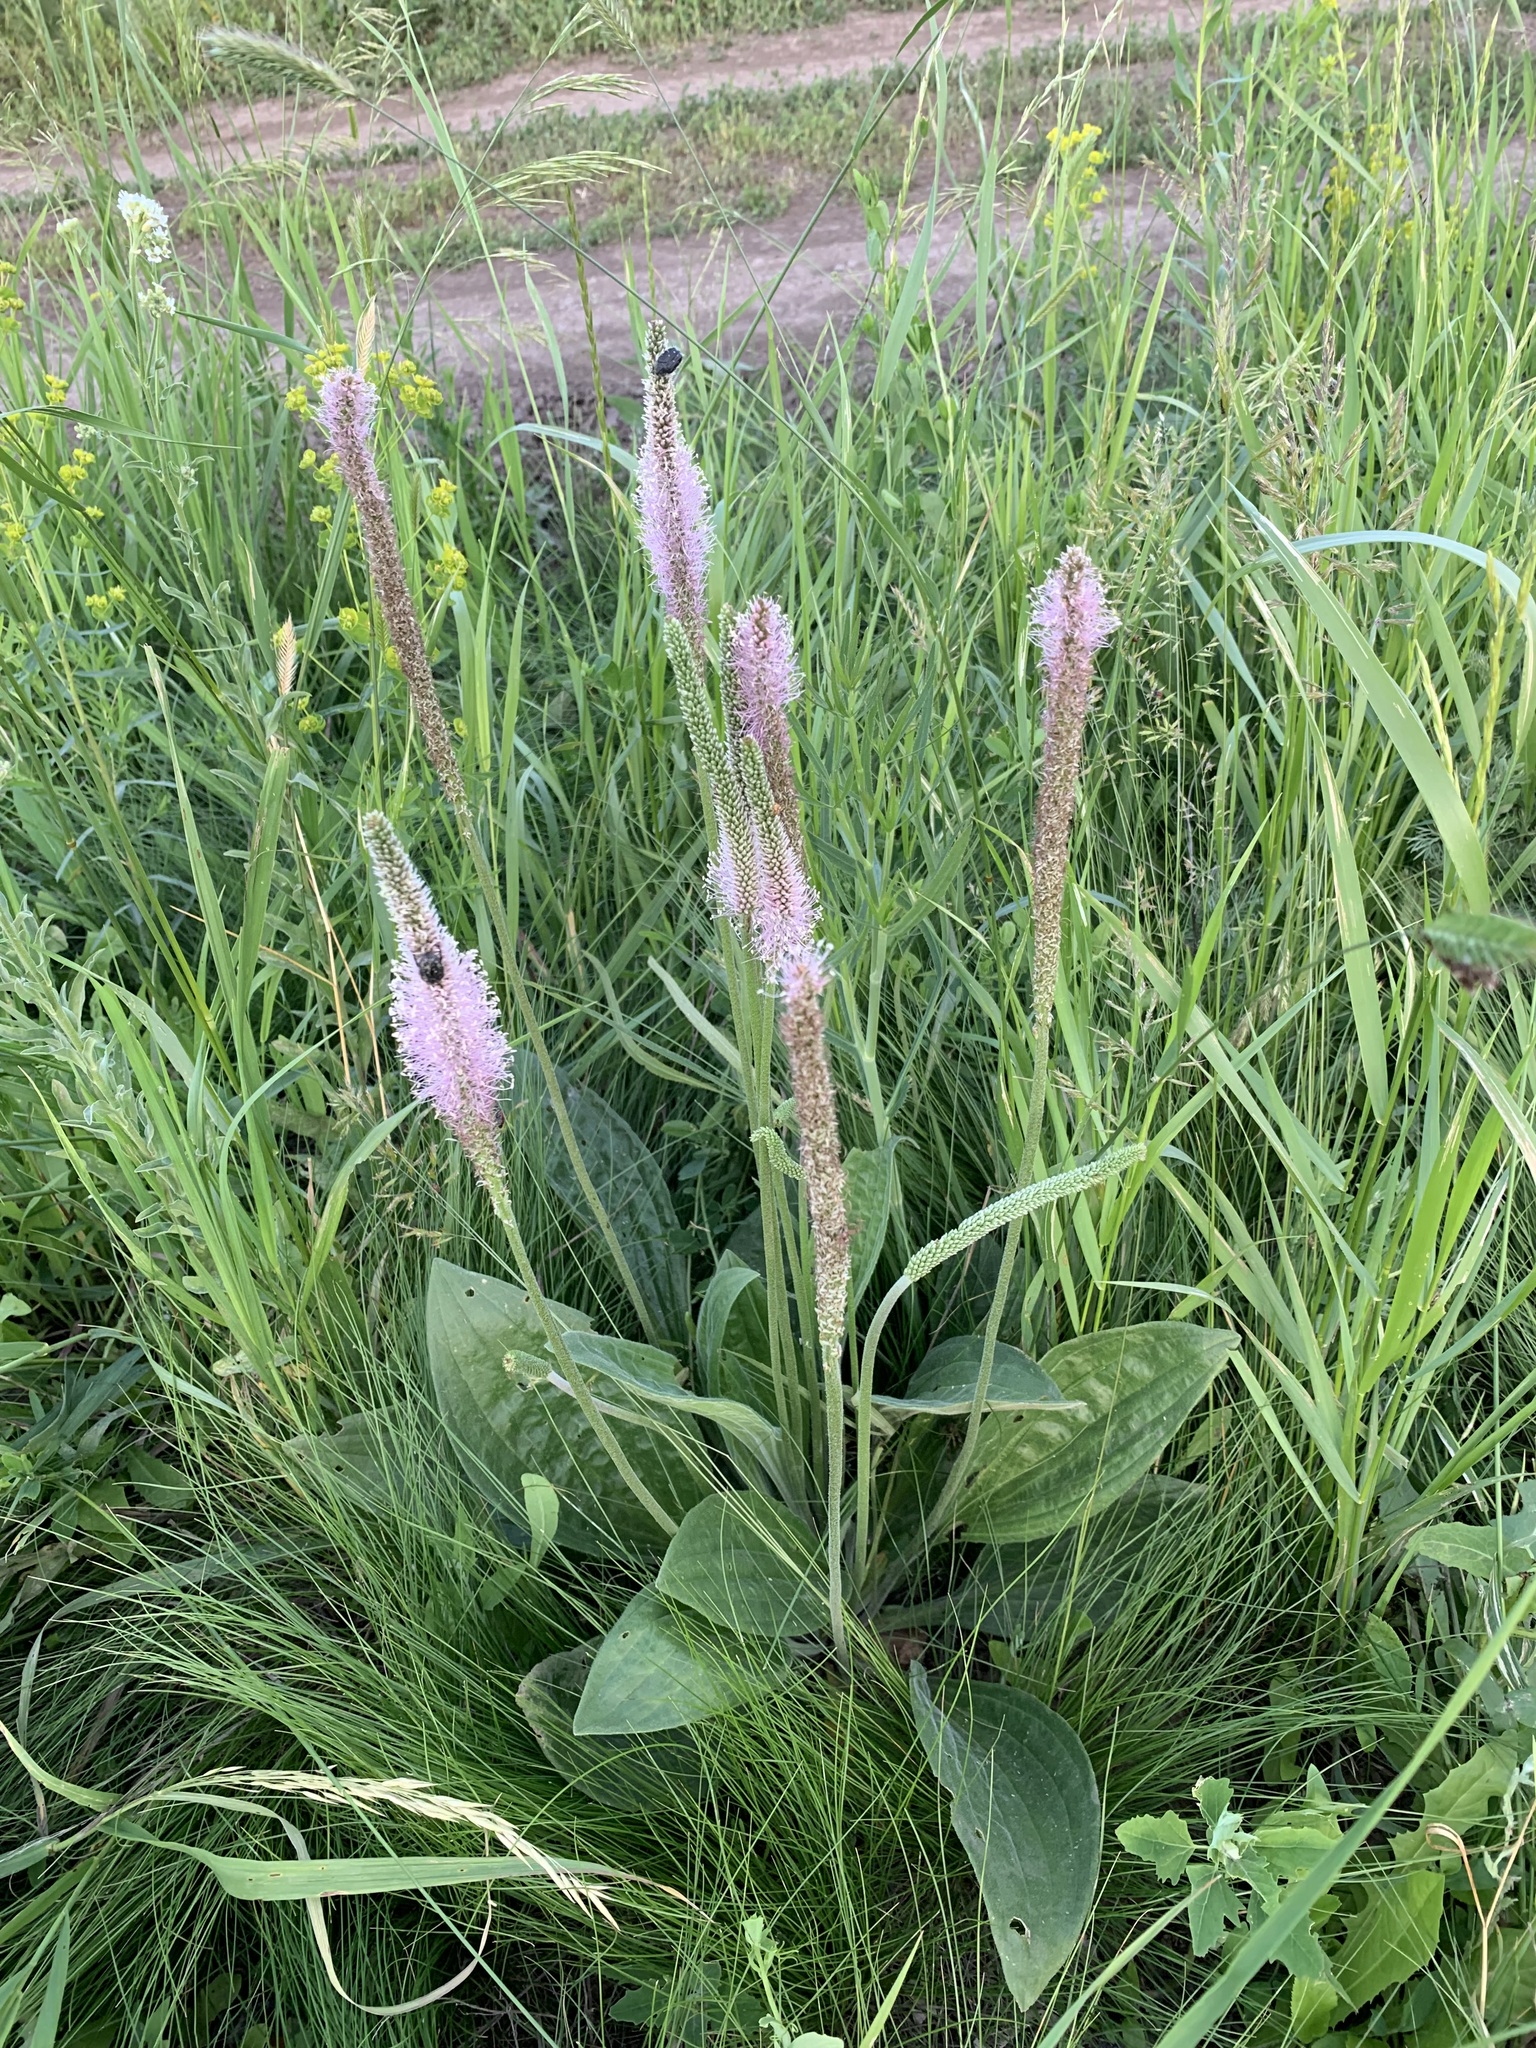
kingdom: Plantae
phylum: Tracheophyta
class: Magnoliopsida
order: Lamiales
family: Plantaginaceae
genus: Plantago
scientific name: Plantago urvillei
